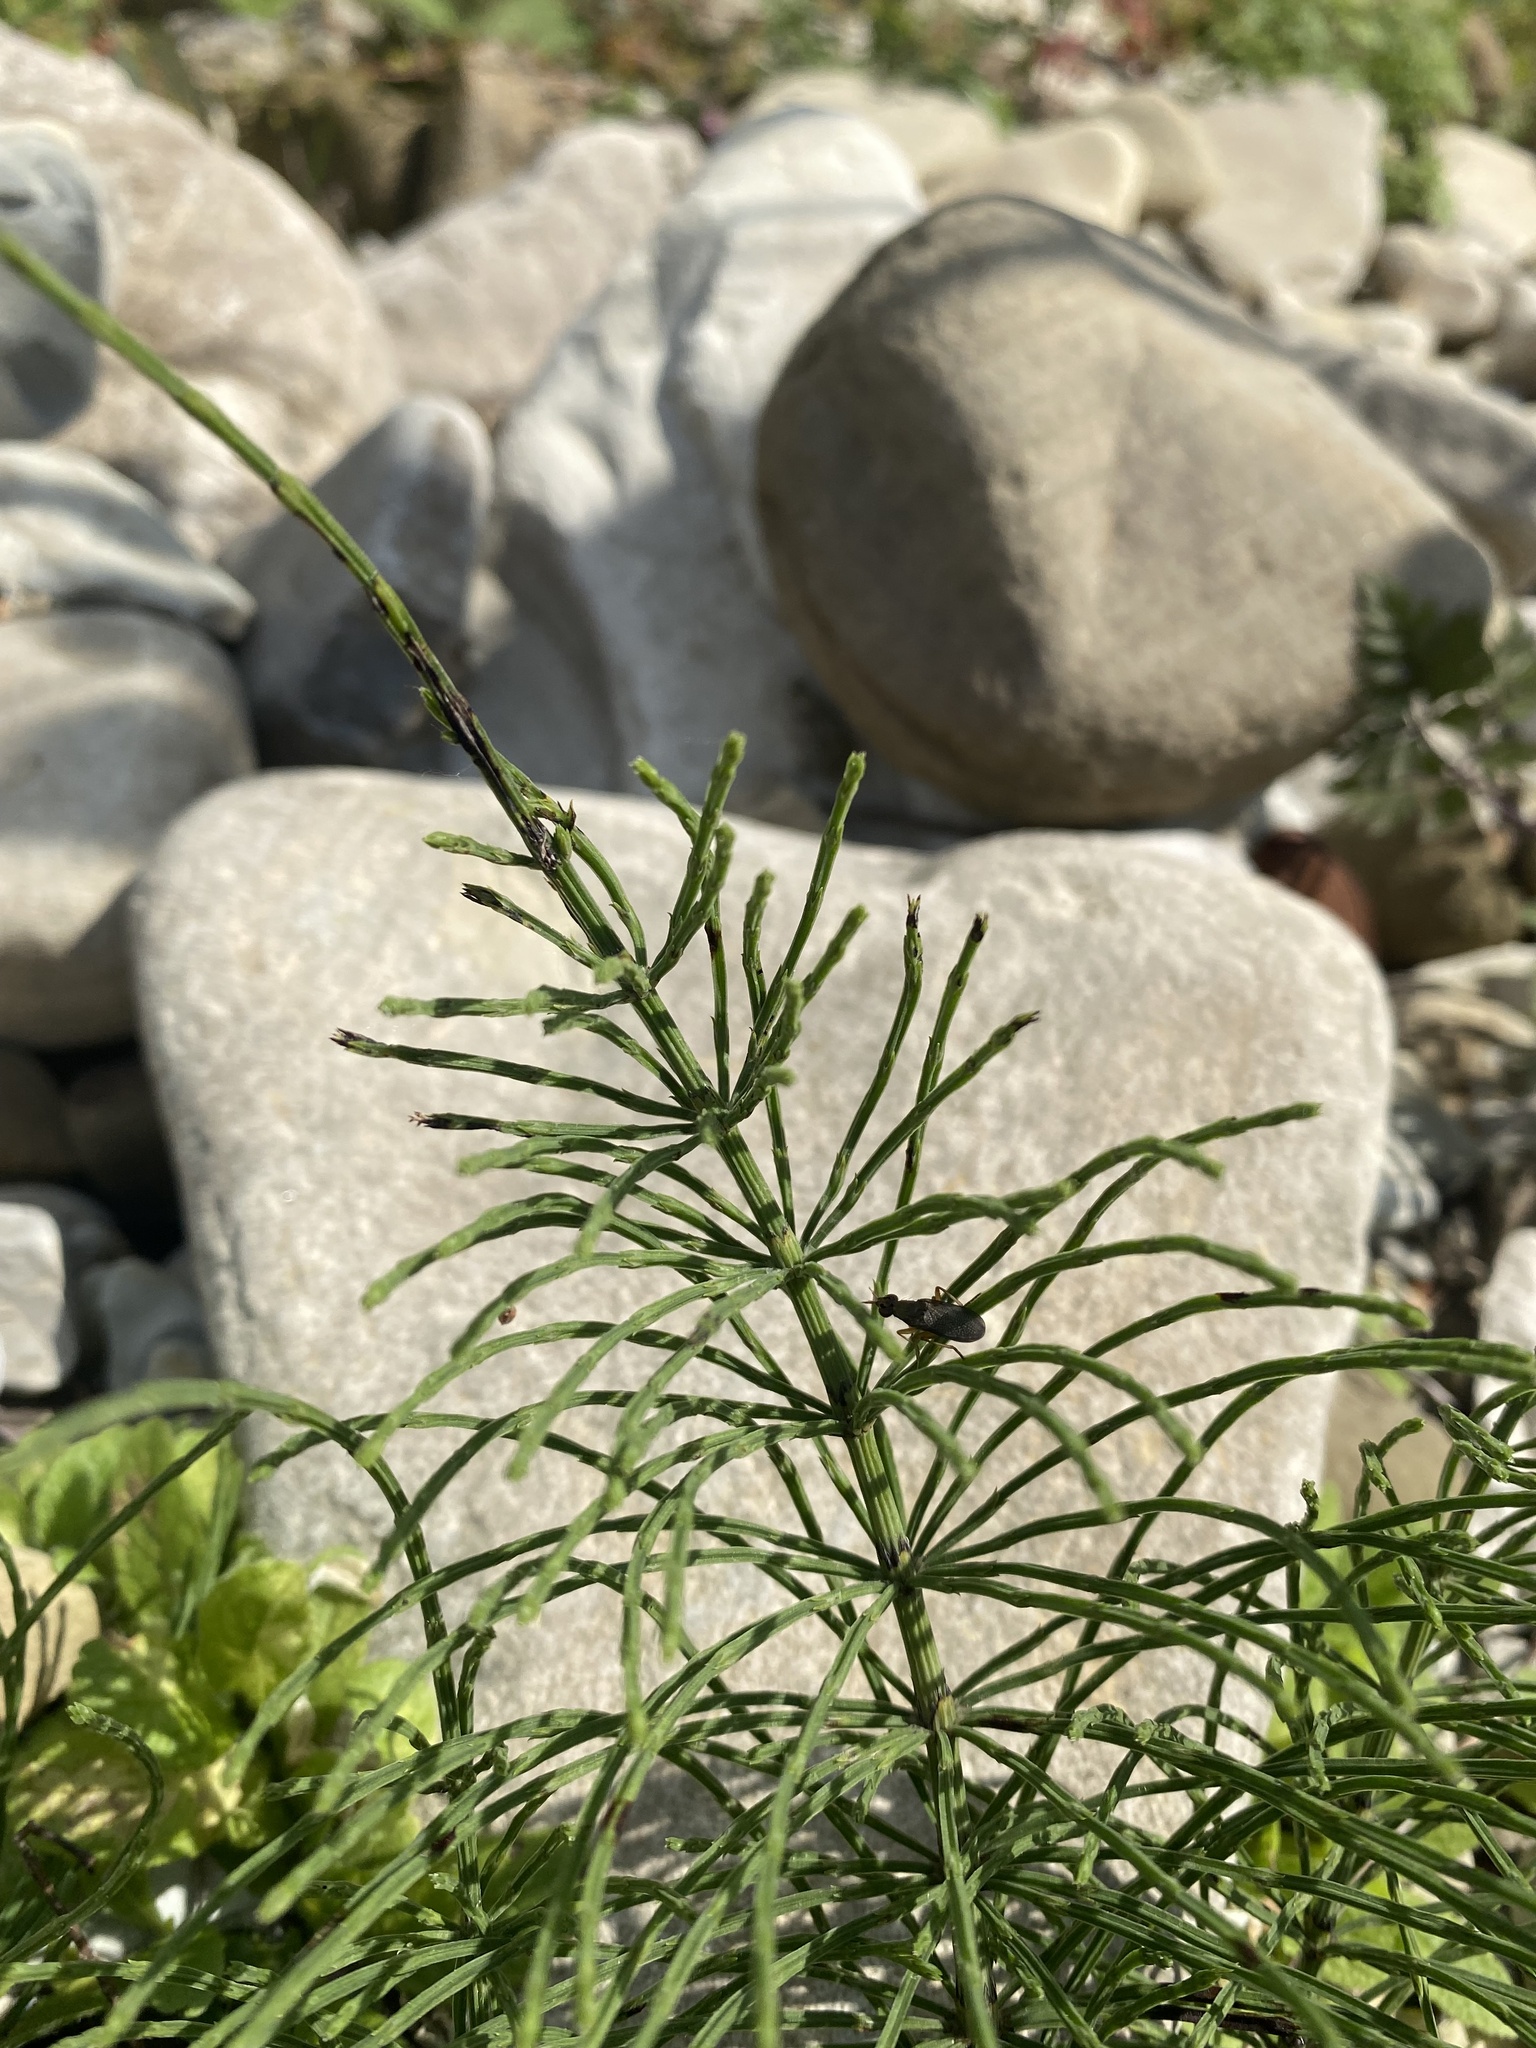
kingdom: Plantae
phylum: Tracheophyta
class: Polypodiopsida
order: Equisetales
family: Equisetaceae
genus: Equisetum
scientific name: Equisetum arvense
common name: Field horsetail
